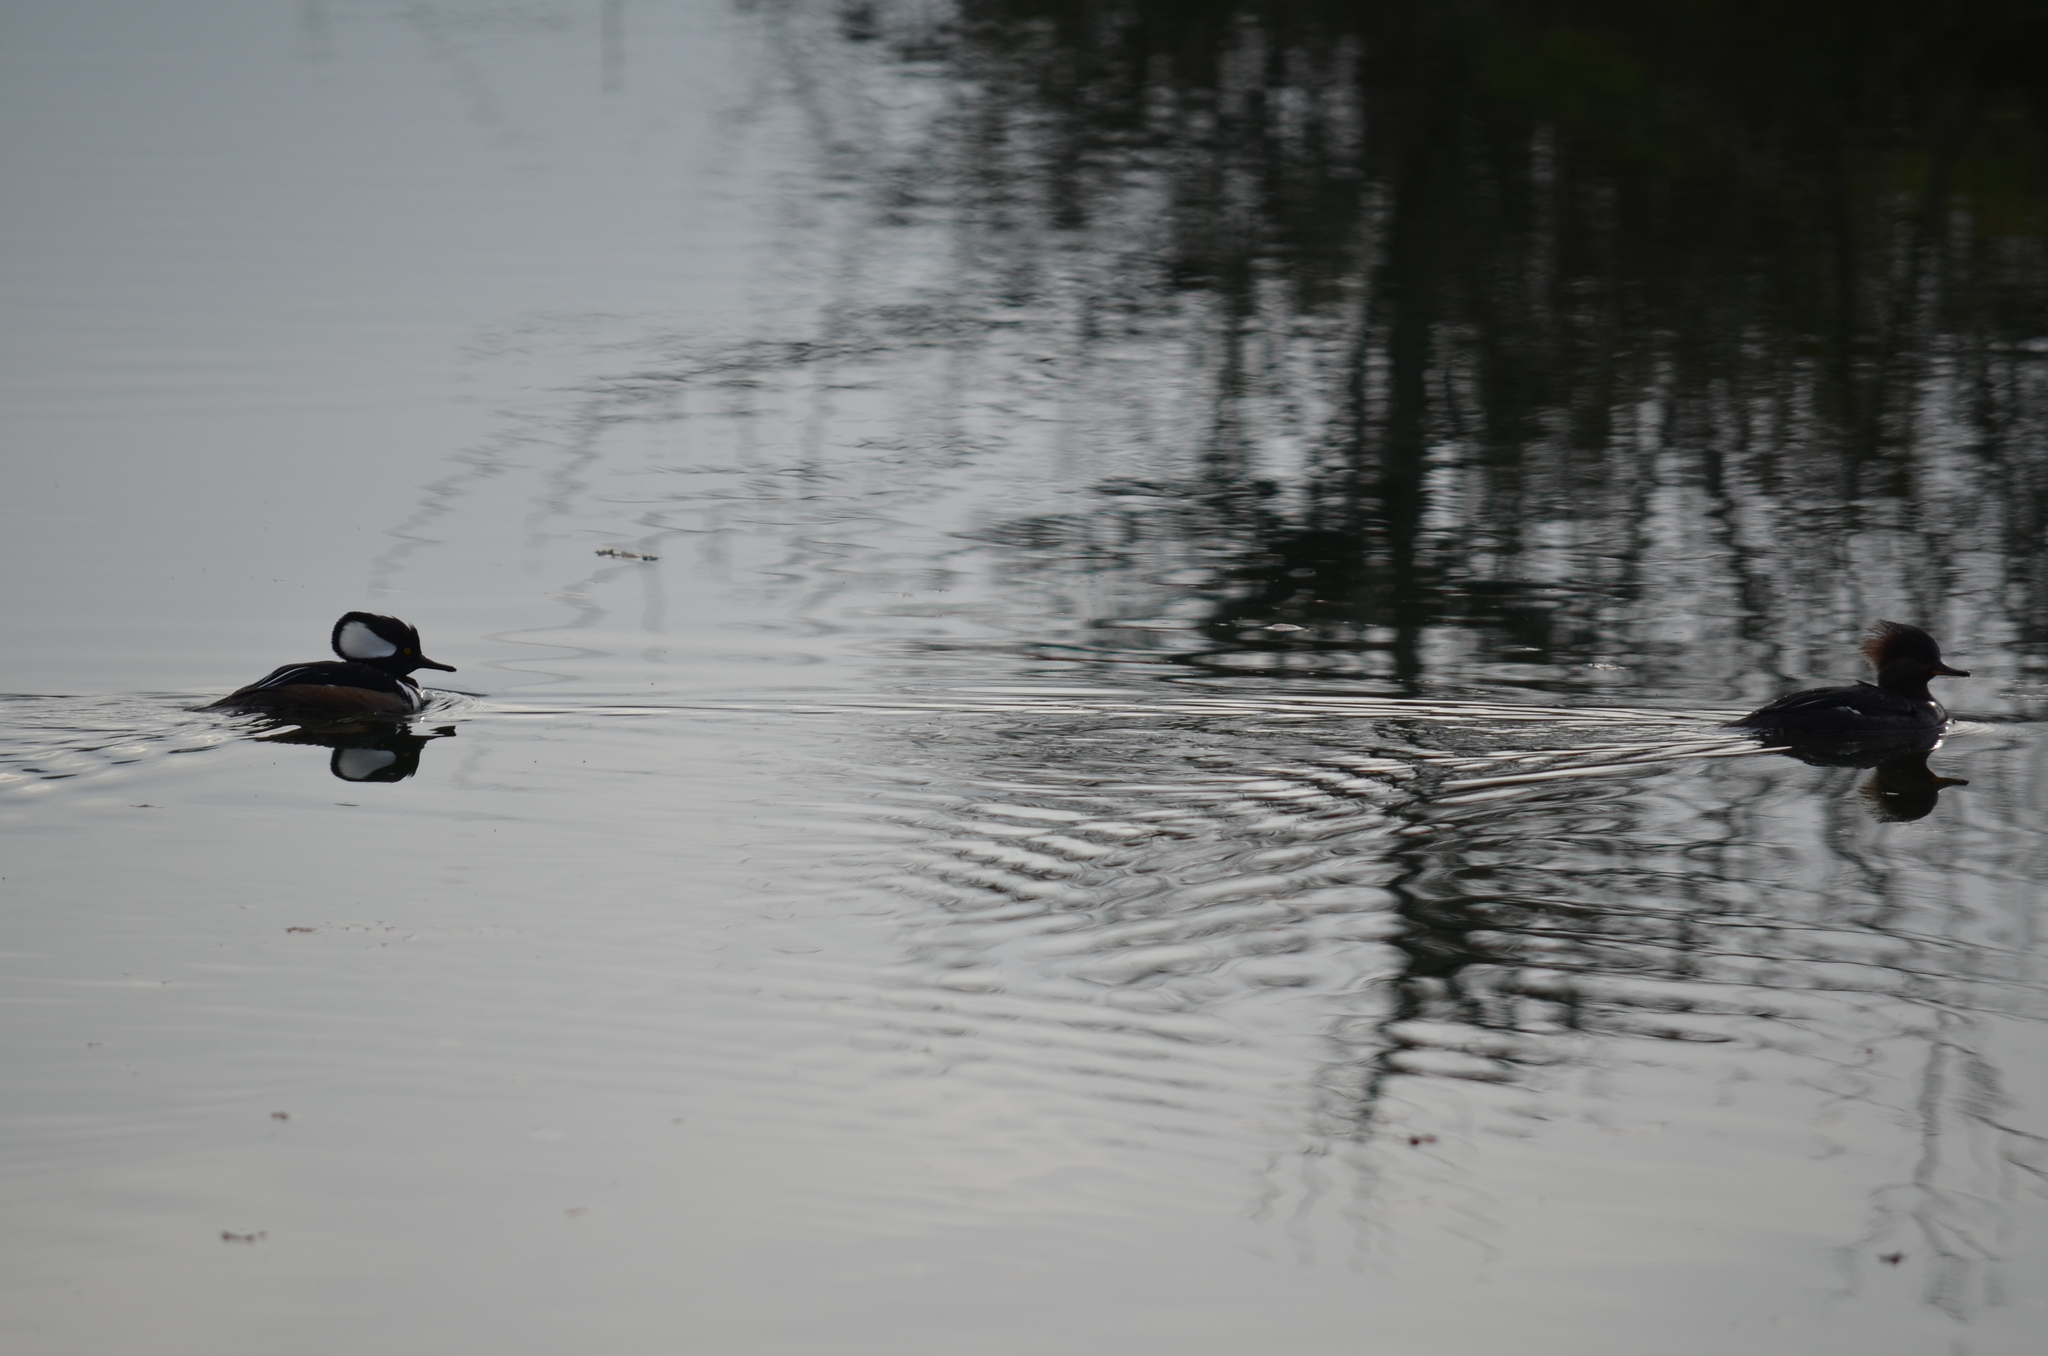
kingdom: Animalia
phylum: Chordata
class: Aves
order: Anseriformes
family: Anatidae
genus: Lophodytes
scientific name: Lophodytes cucullatus
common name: Hooded merganser
